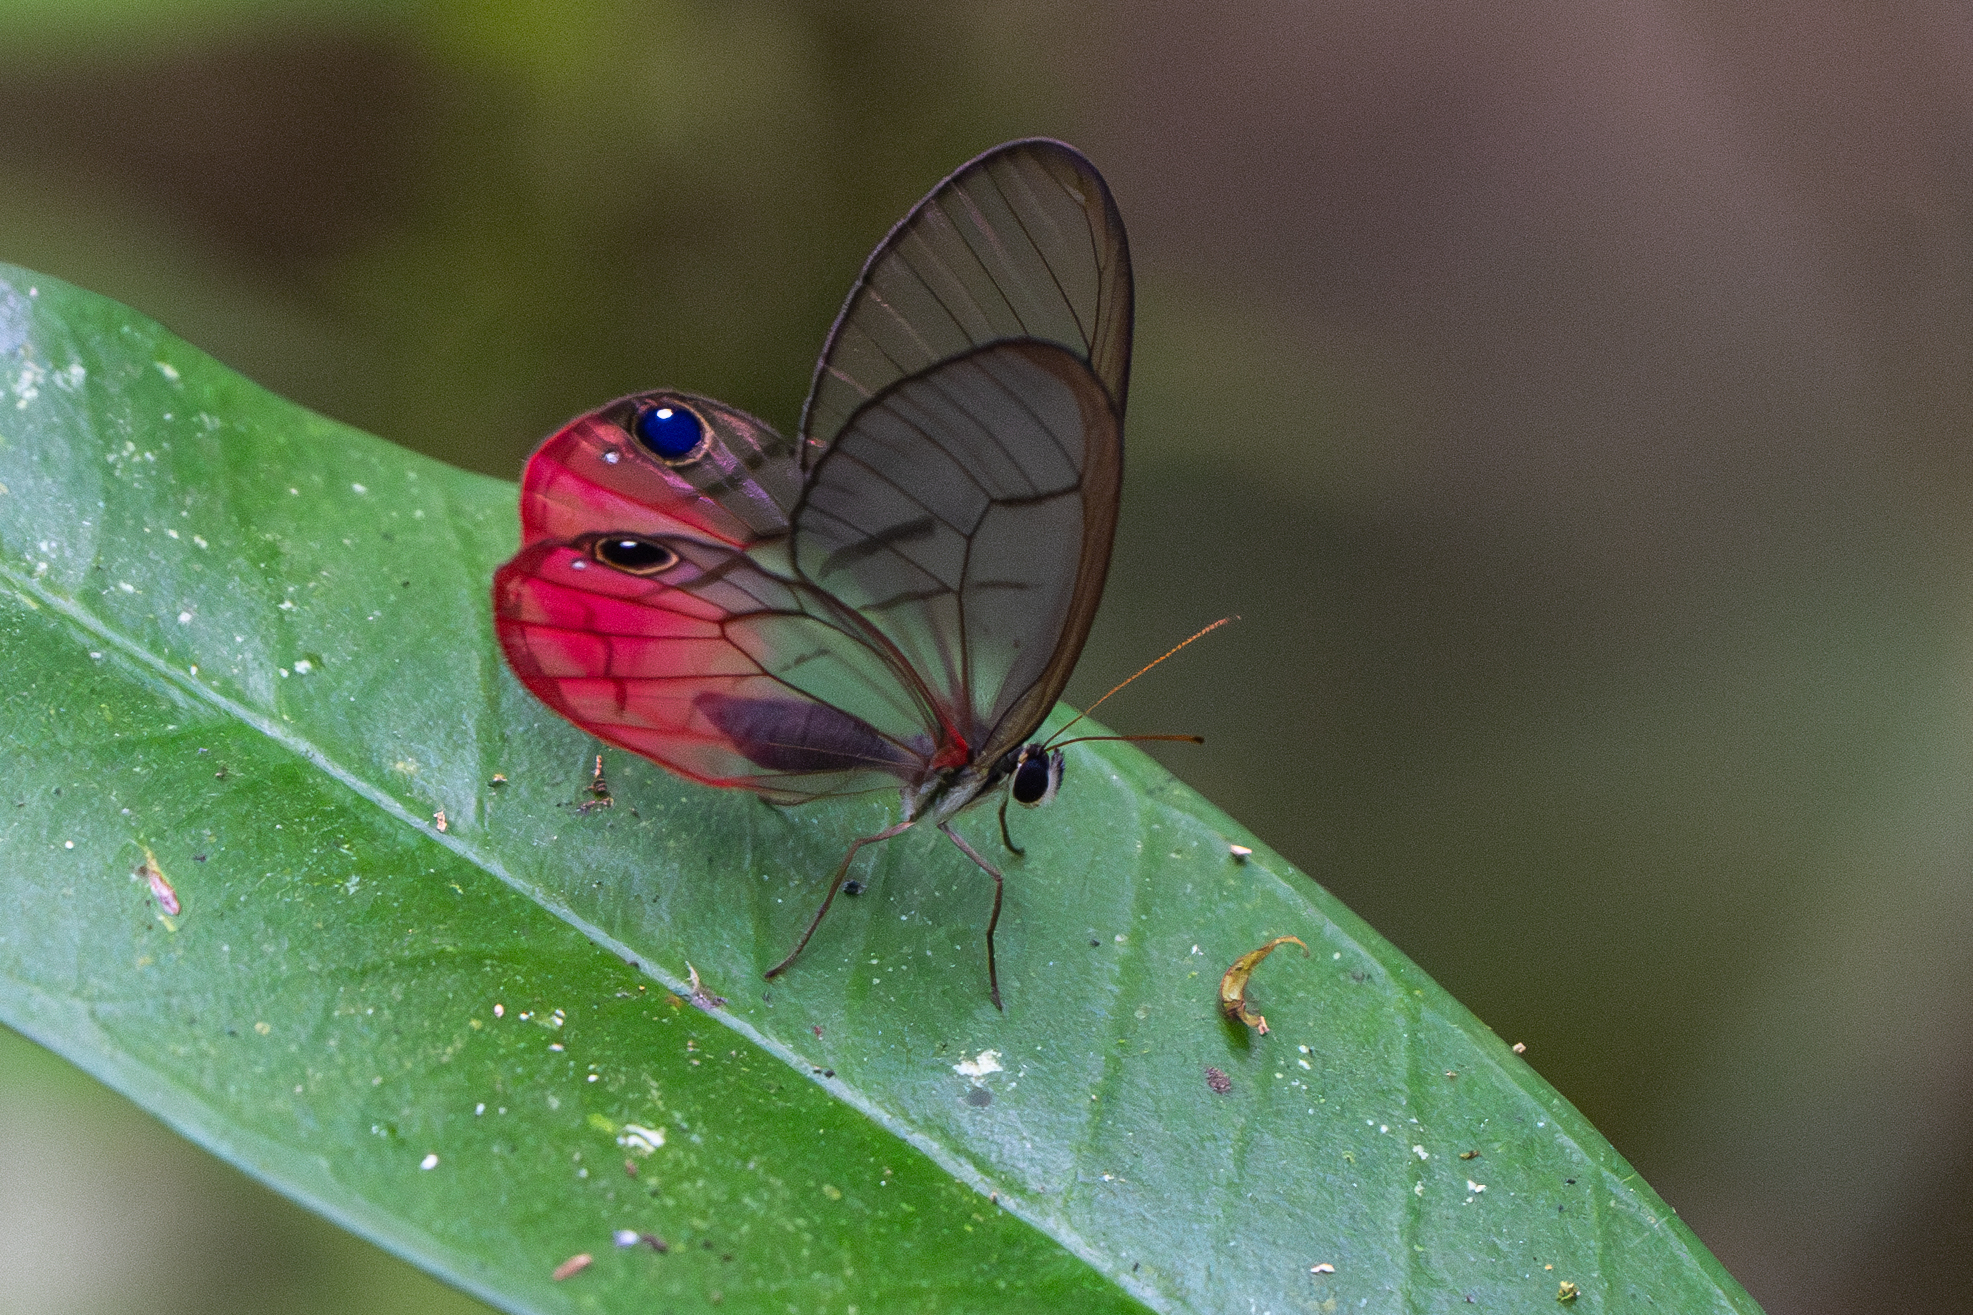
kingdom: Animalia
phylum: Arthropoda
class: Insecta
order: Lepidoptera
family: Nymphalidae
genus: Cithaerias
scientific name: Cithaerias pireta
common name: Rusted clearwing-satyr
